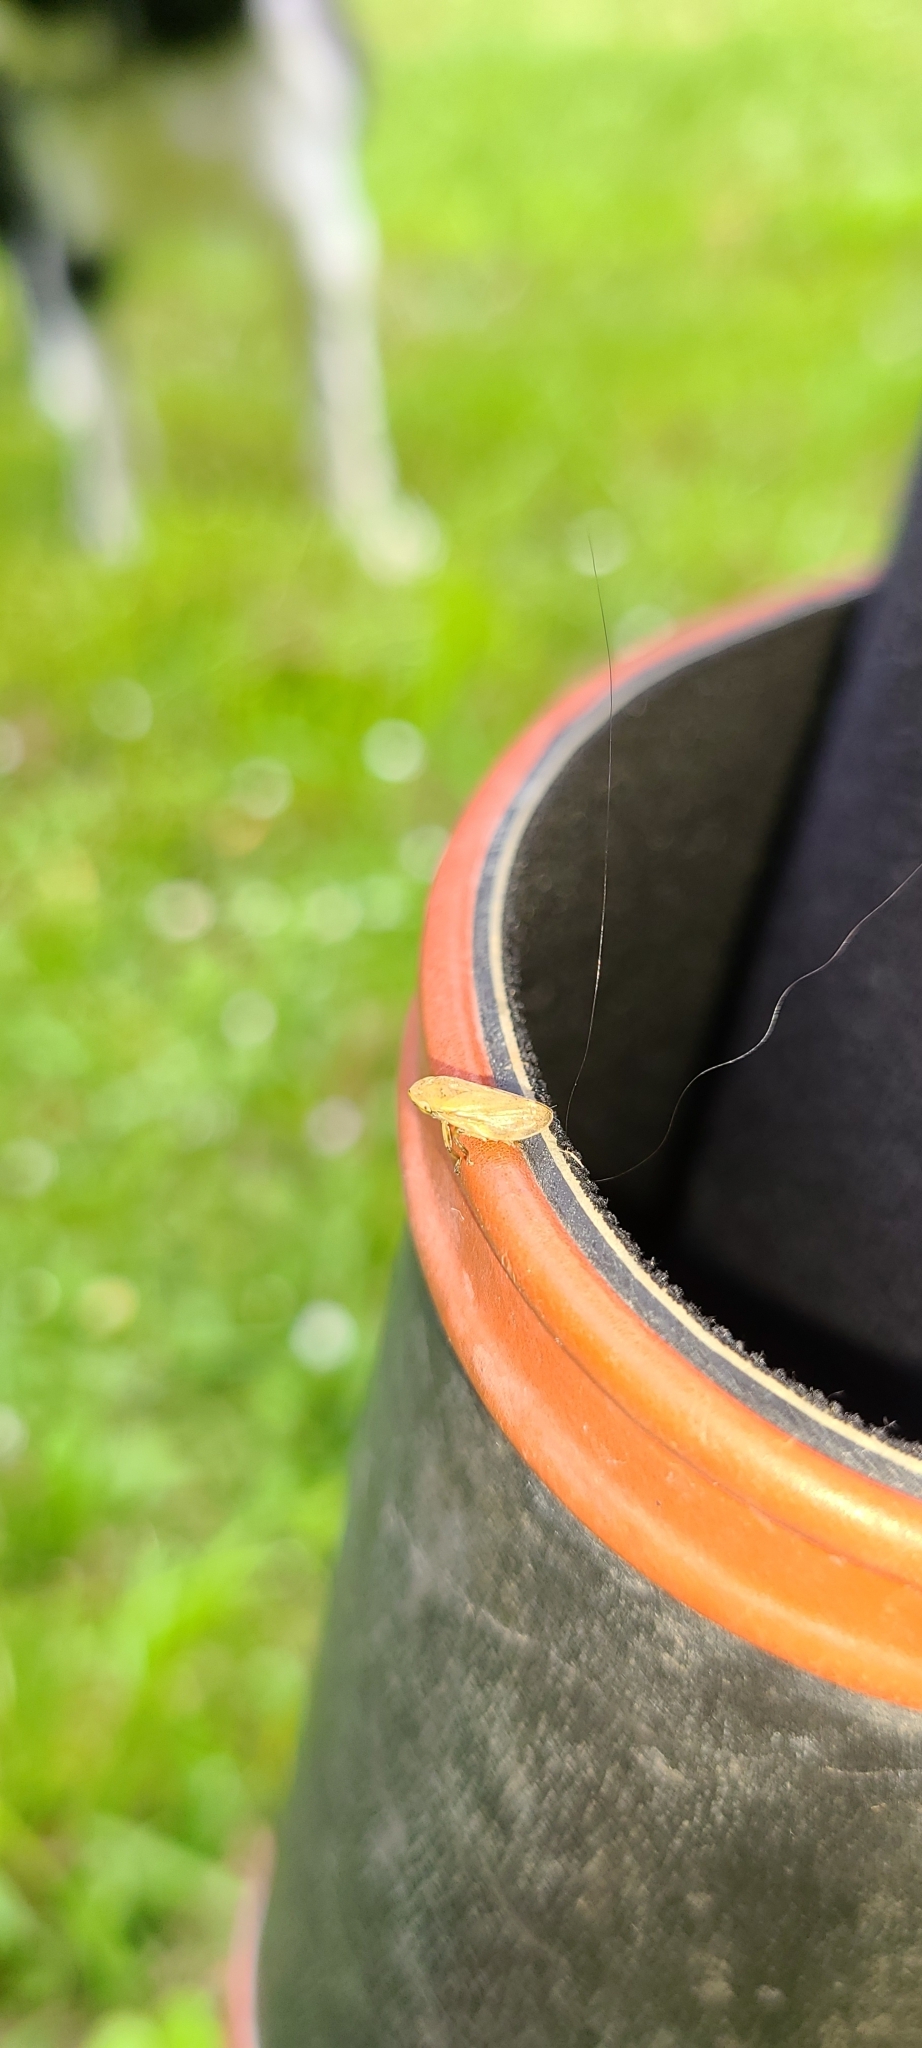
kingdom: Animalia
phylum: Arthropoda
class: Insecta
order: Hemiptera
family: Aphrophoridae
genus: Philaenus
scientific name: Philaenus spumarius
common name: Meadow spittlebug
